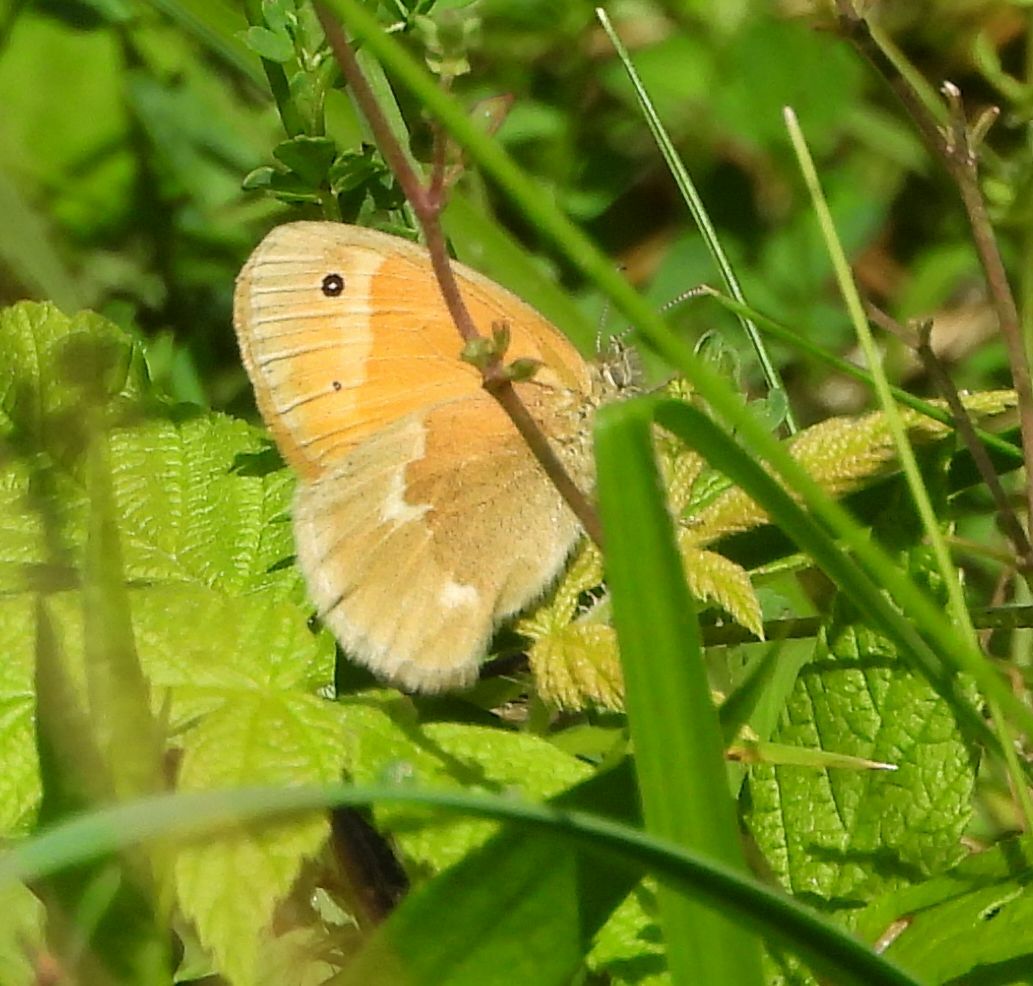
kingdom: Animalia
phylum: Arthropoda
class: Insecta
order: Lepidoptera
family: Nymphalidae
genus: Coenonympha
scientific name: Coenonympha california
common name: Common ringlet
